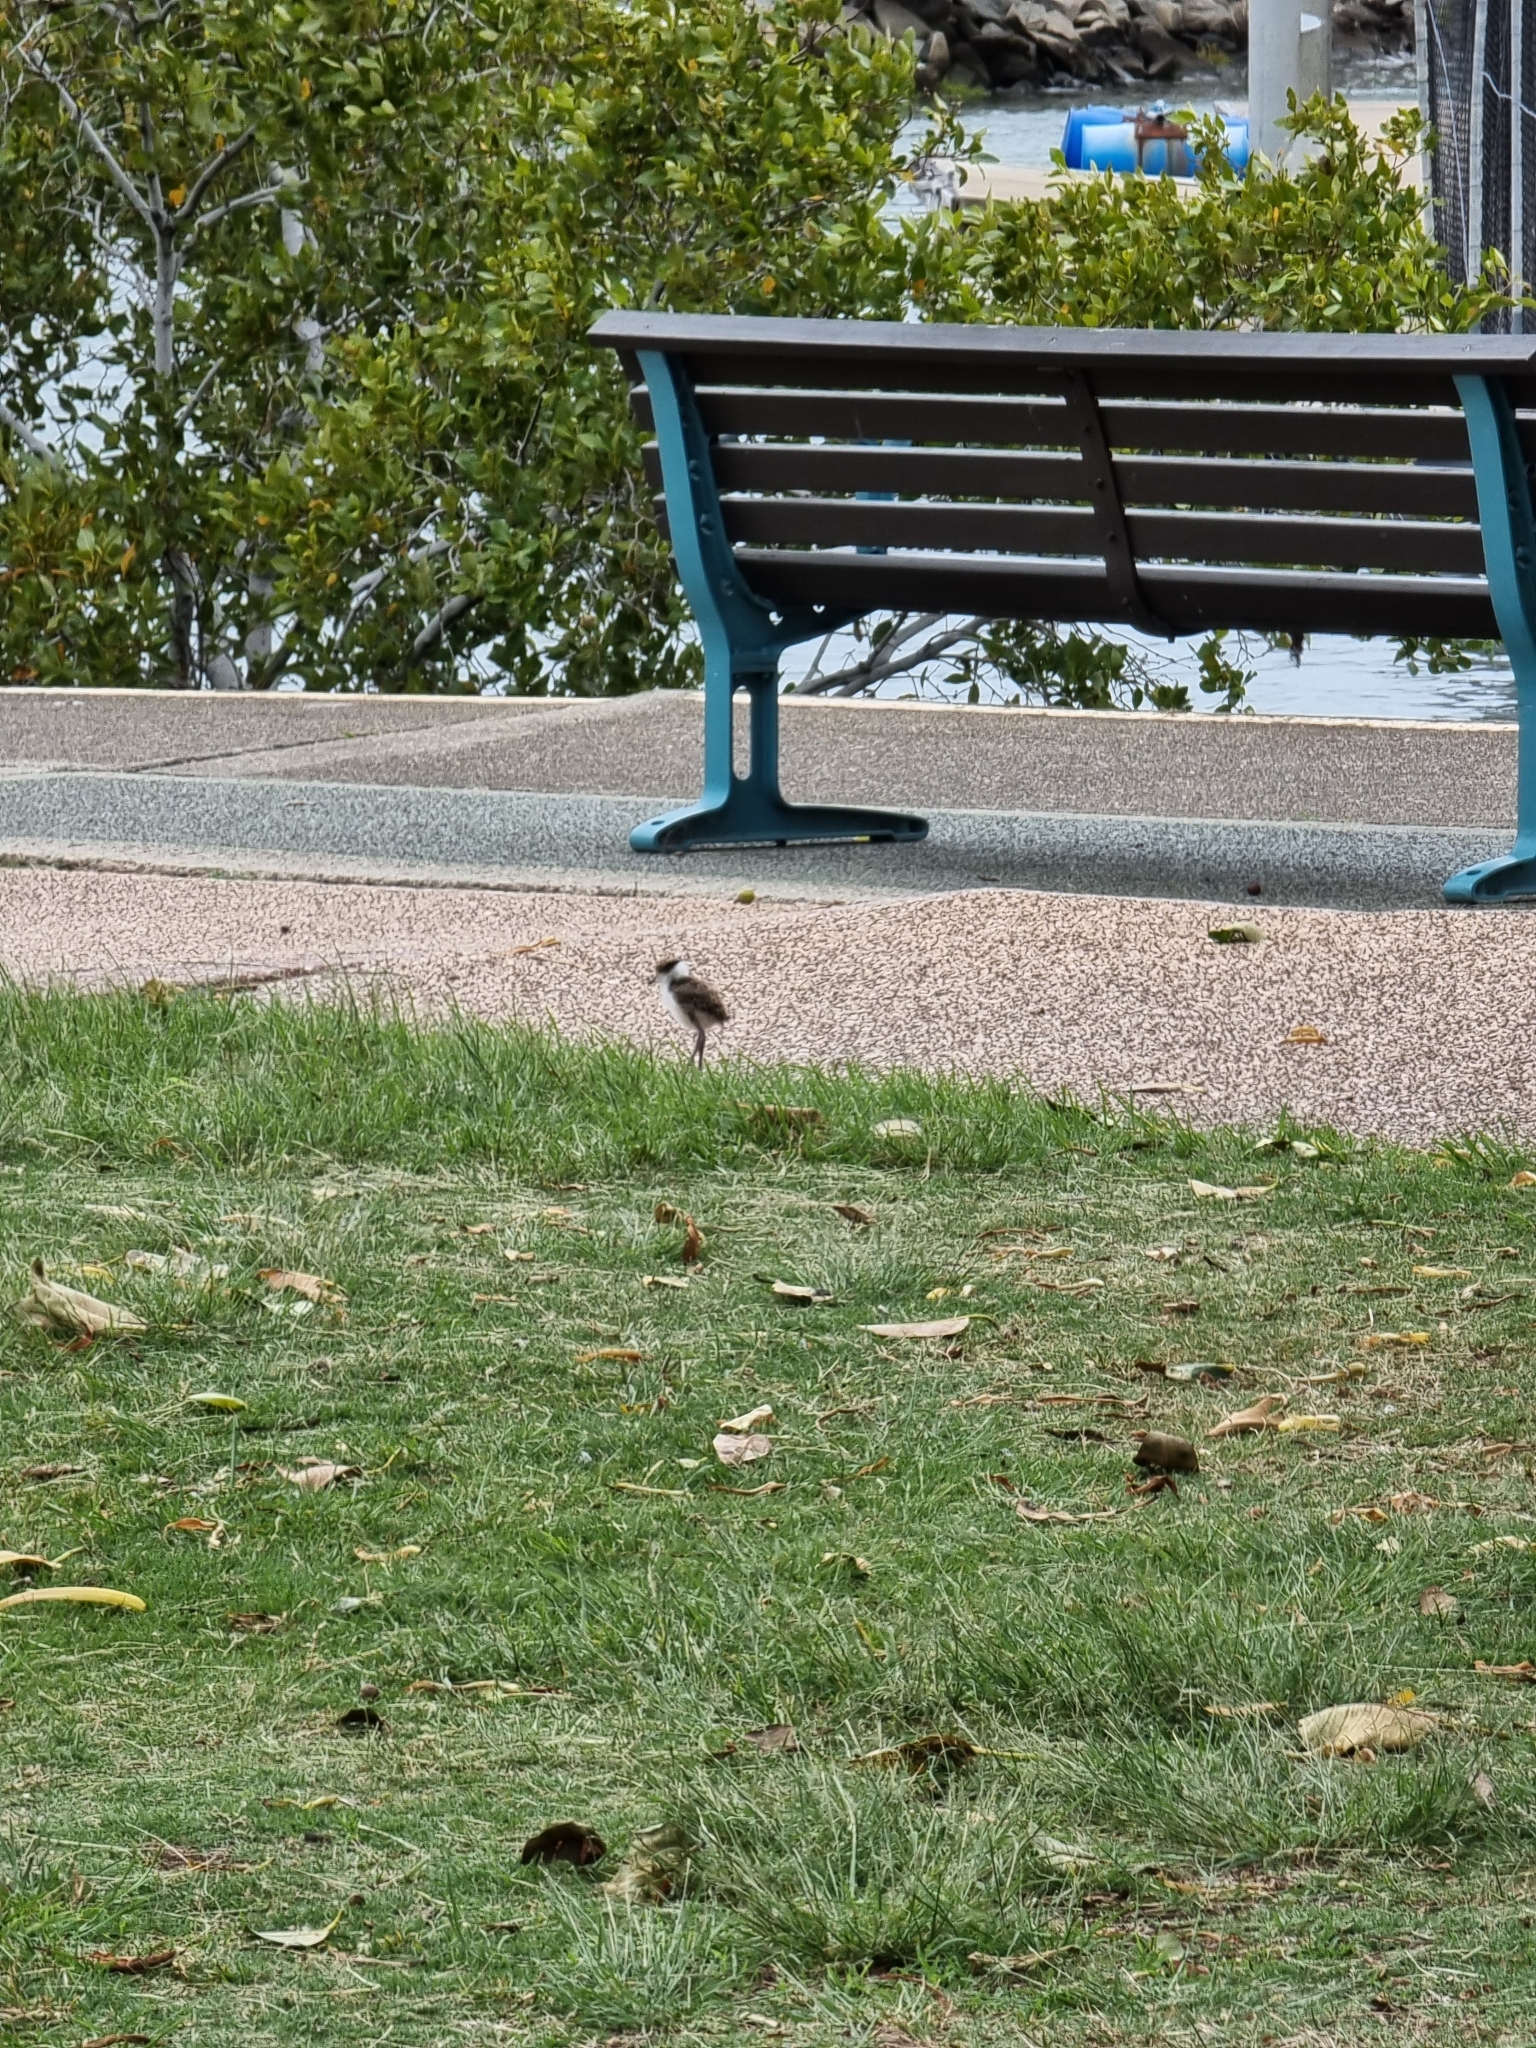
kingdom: Animalia
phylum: Chordata
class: Aves
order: Charadriiformes
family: Charadriidae
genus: Vanellus
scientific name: Vanellus miles
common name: Masked lapwing
